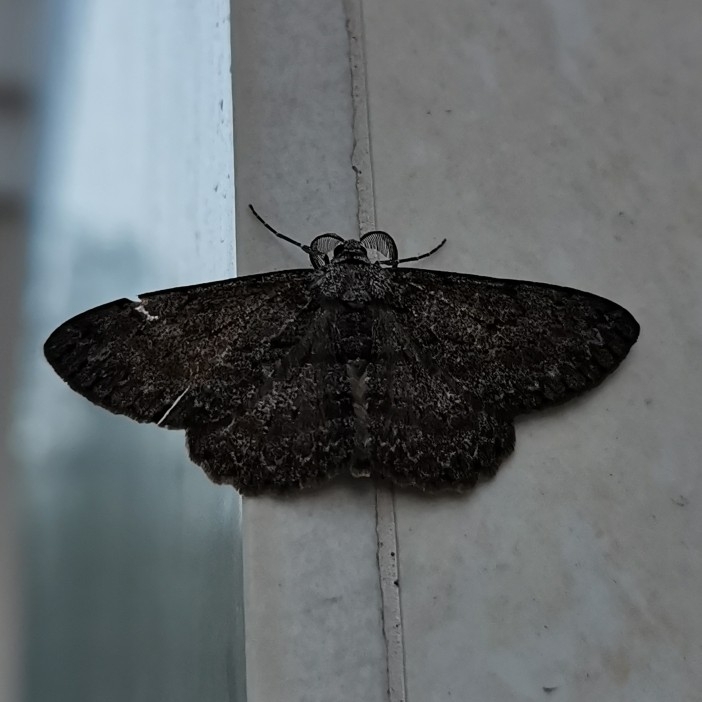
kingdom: Animalia
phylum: Arthropoda
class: Insecta
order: Lepidoptera
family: Geometridae
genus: Hypomecis
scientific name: Hypomecis punctinalis
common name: Pale oak beauty
